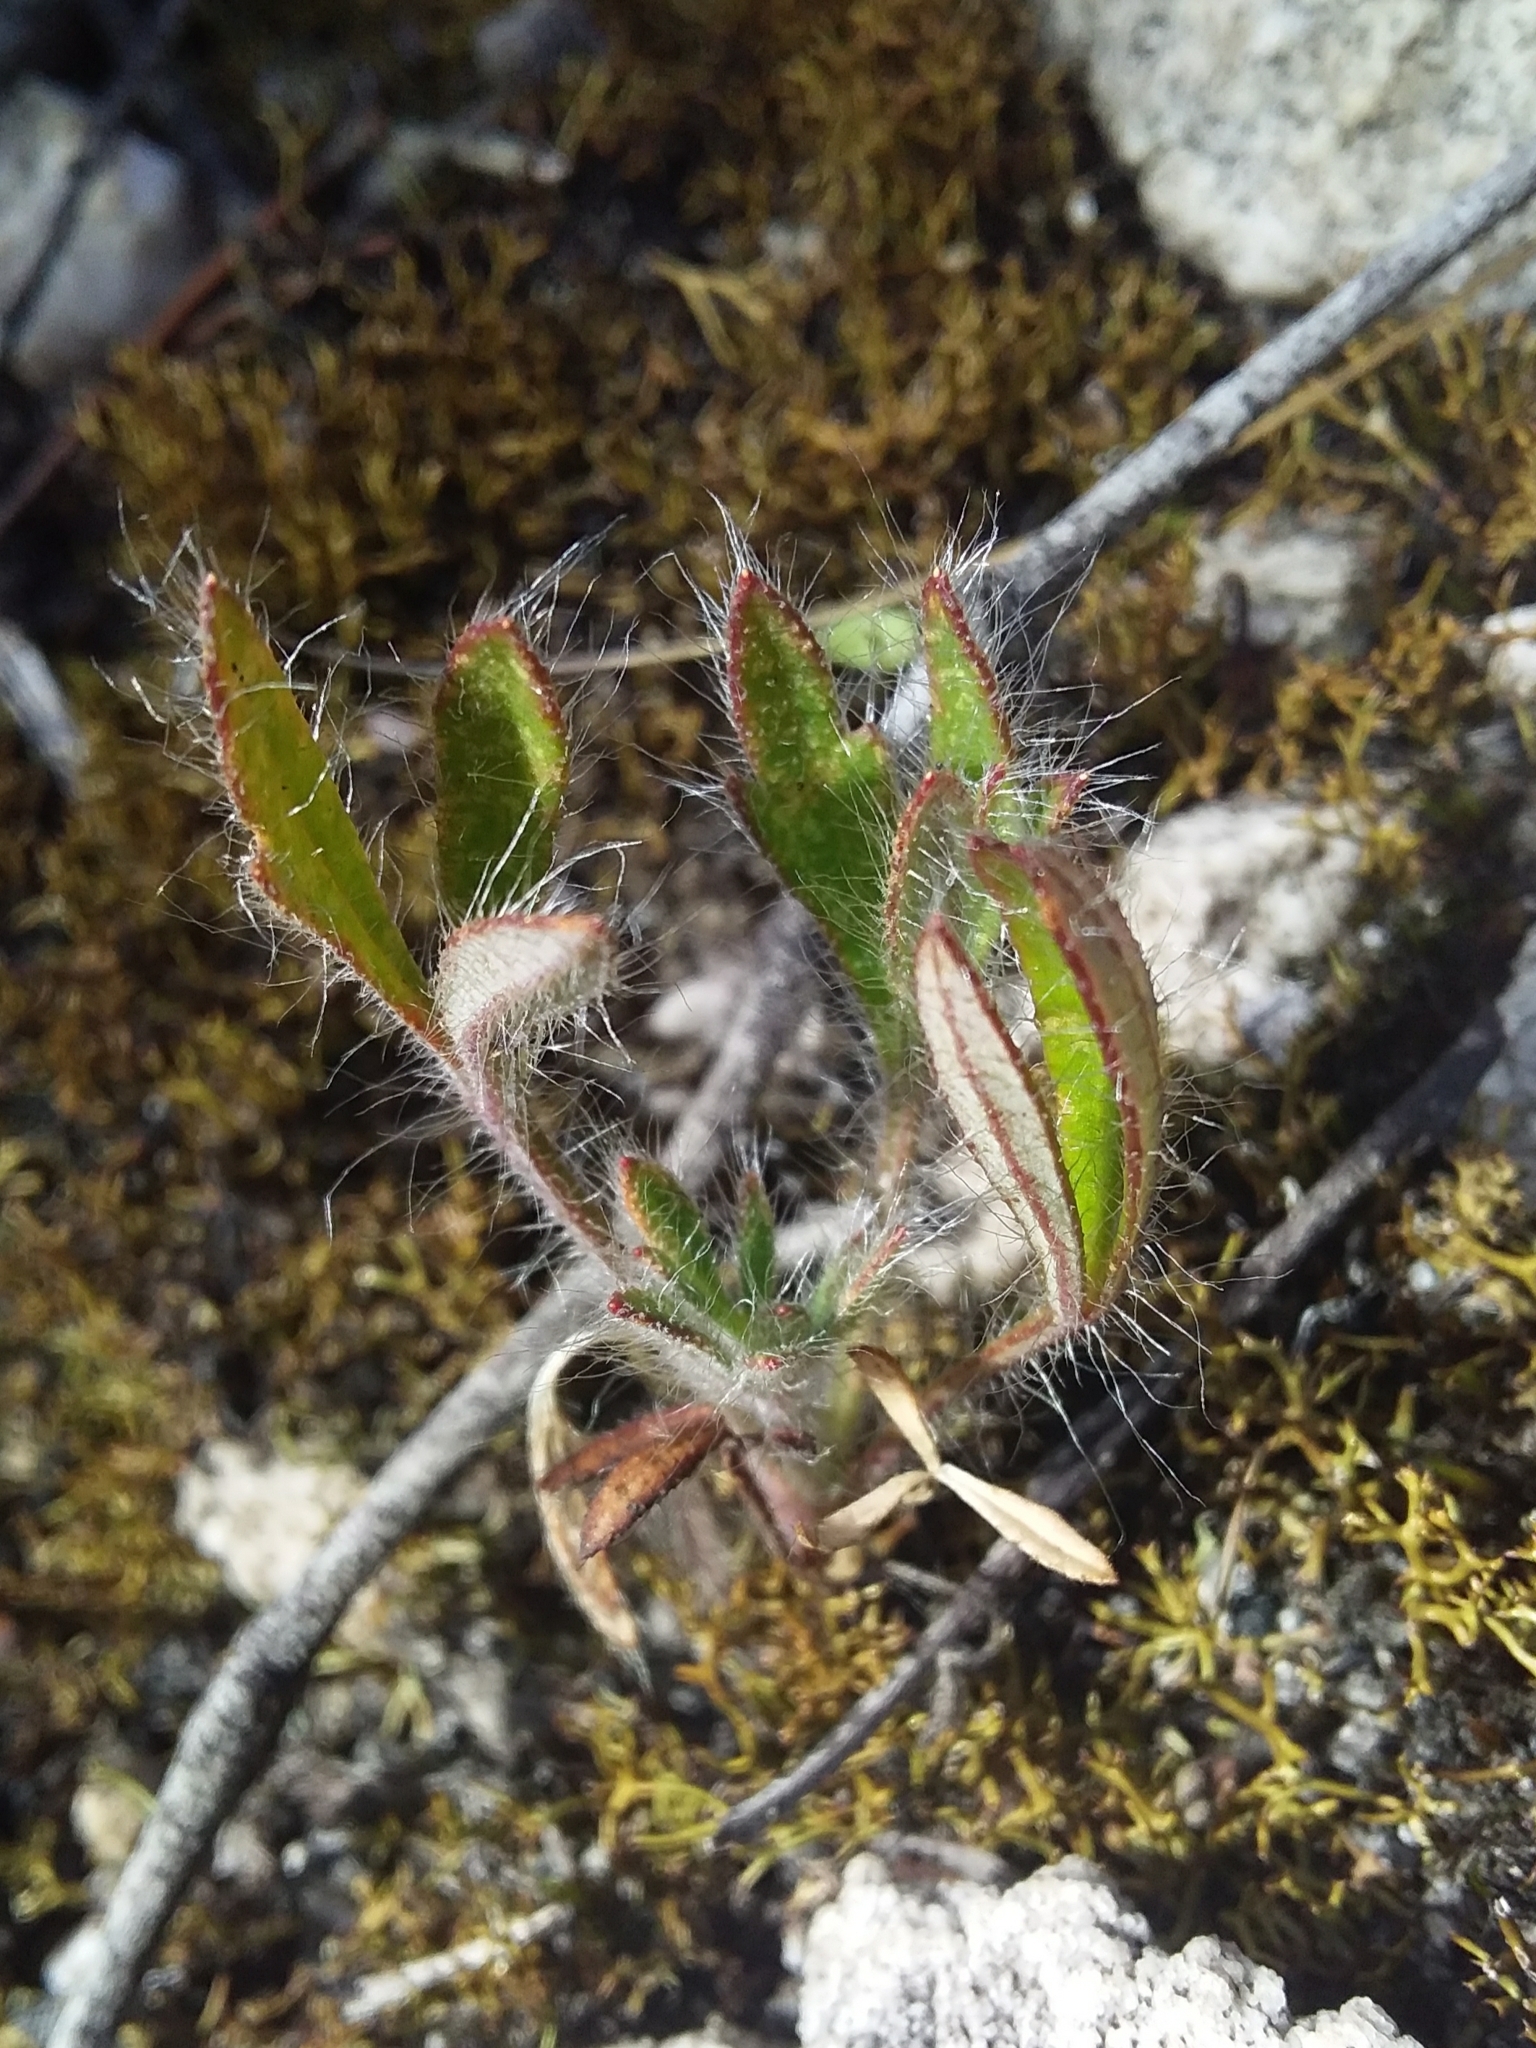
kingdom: Plantae
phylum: Tracheophyta
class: Magnoliopsida
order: Apiales
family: Apiaceae
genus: Xanthosia
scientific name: Xanthosia huegelii
